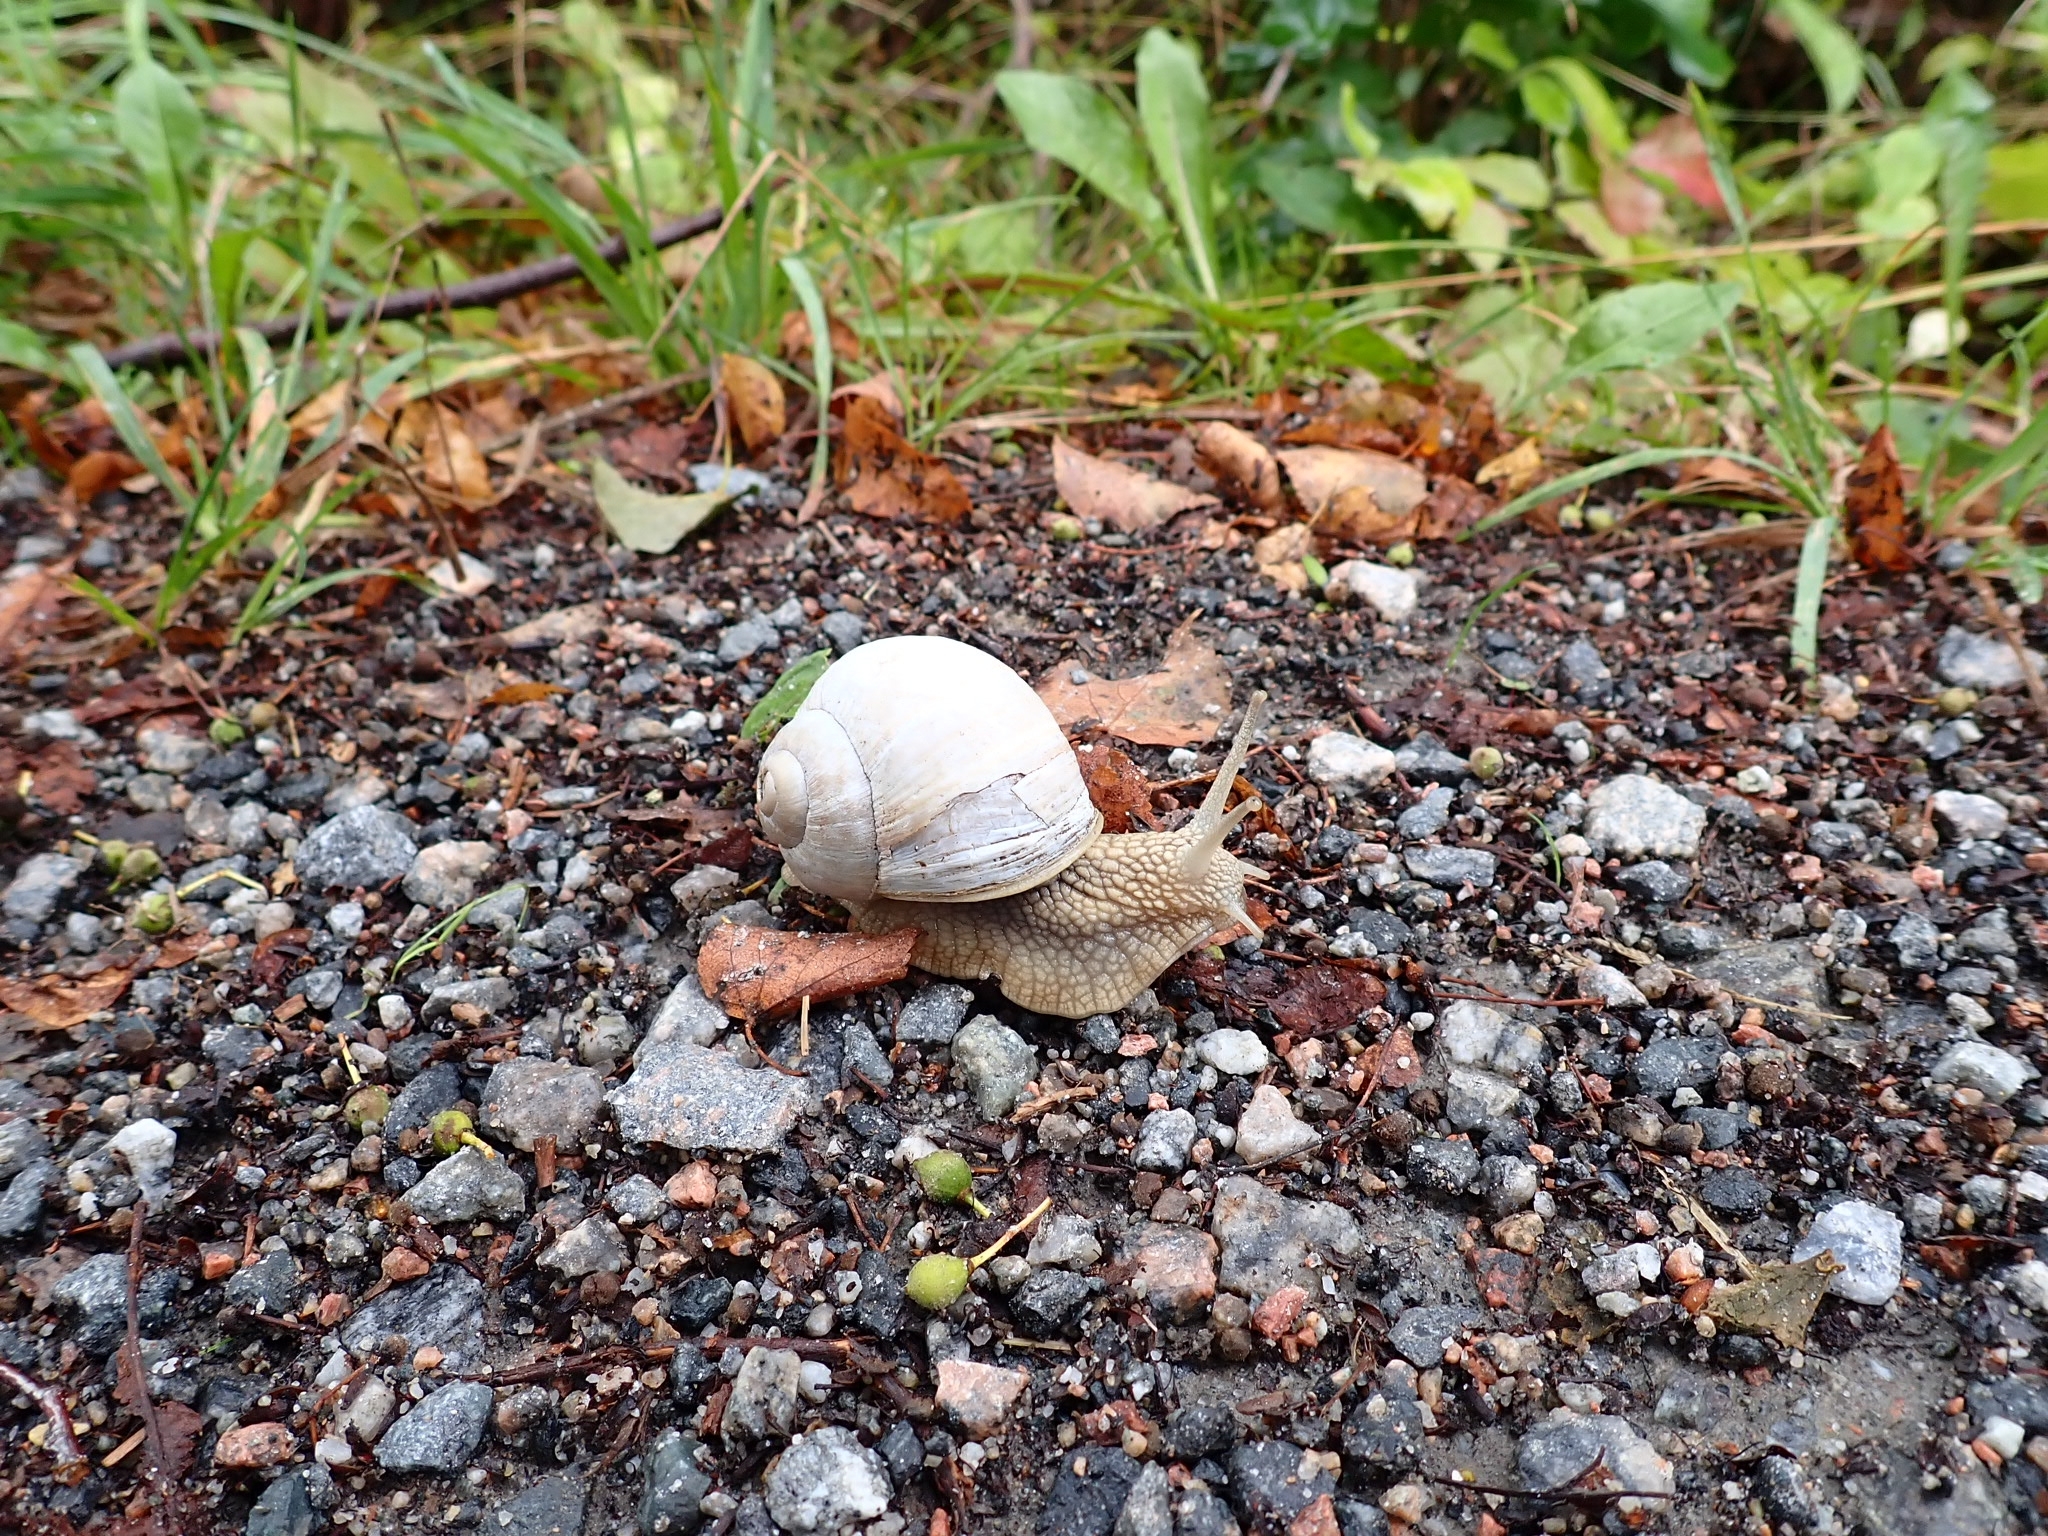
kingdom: Animalia
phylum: Mollusca
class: Gastropoda
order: Stylommatophora
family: Helicidae
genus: Helix
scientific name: Helix pomatia
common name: Roman snail
